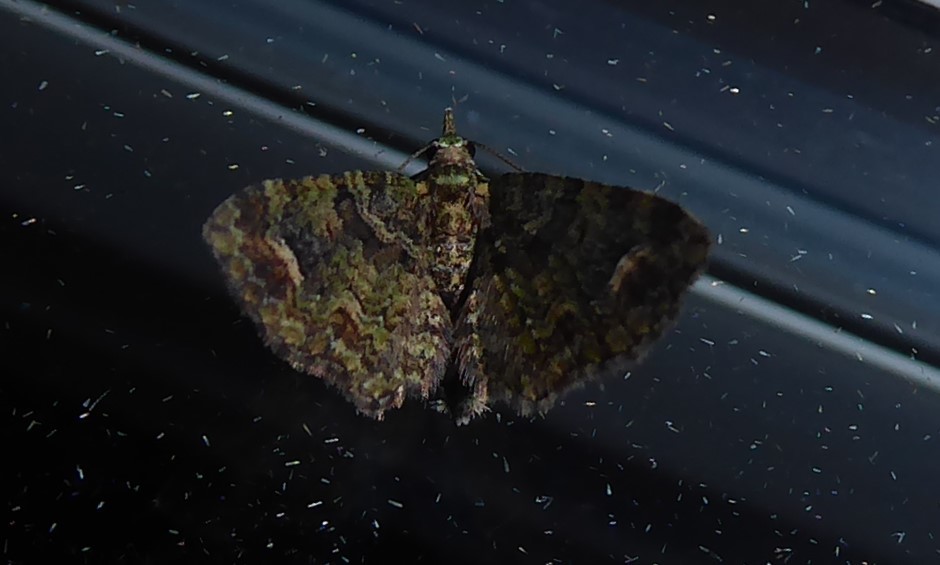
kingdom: Animalia
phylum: Arthropoda
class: Insecta
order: Lepidoptera
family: Geometridae
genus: Idaea
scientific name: Idaea mutanda
